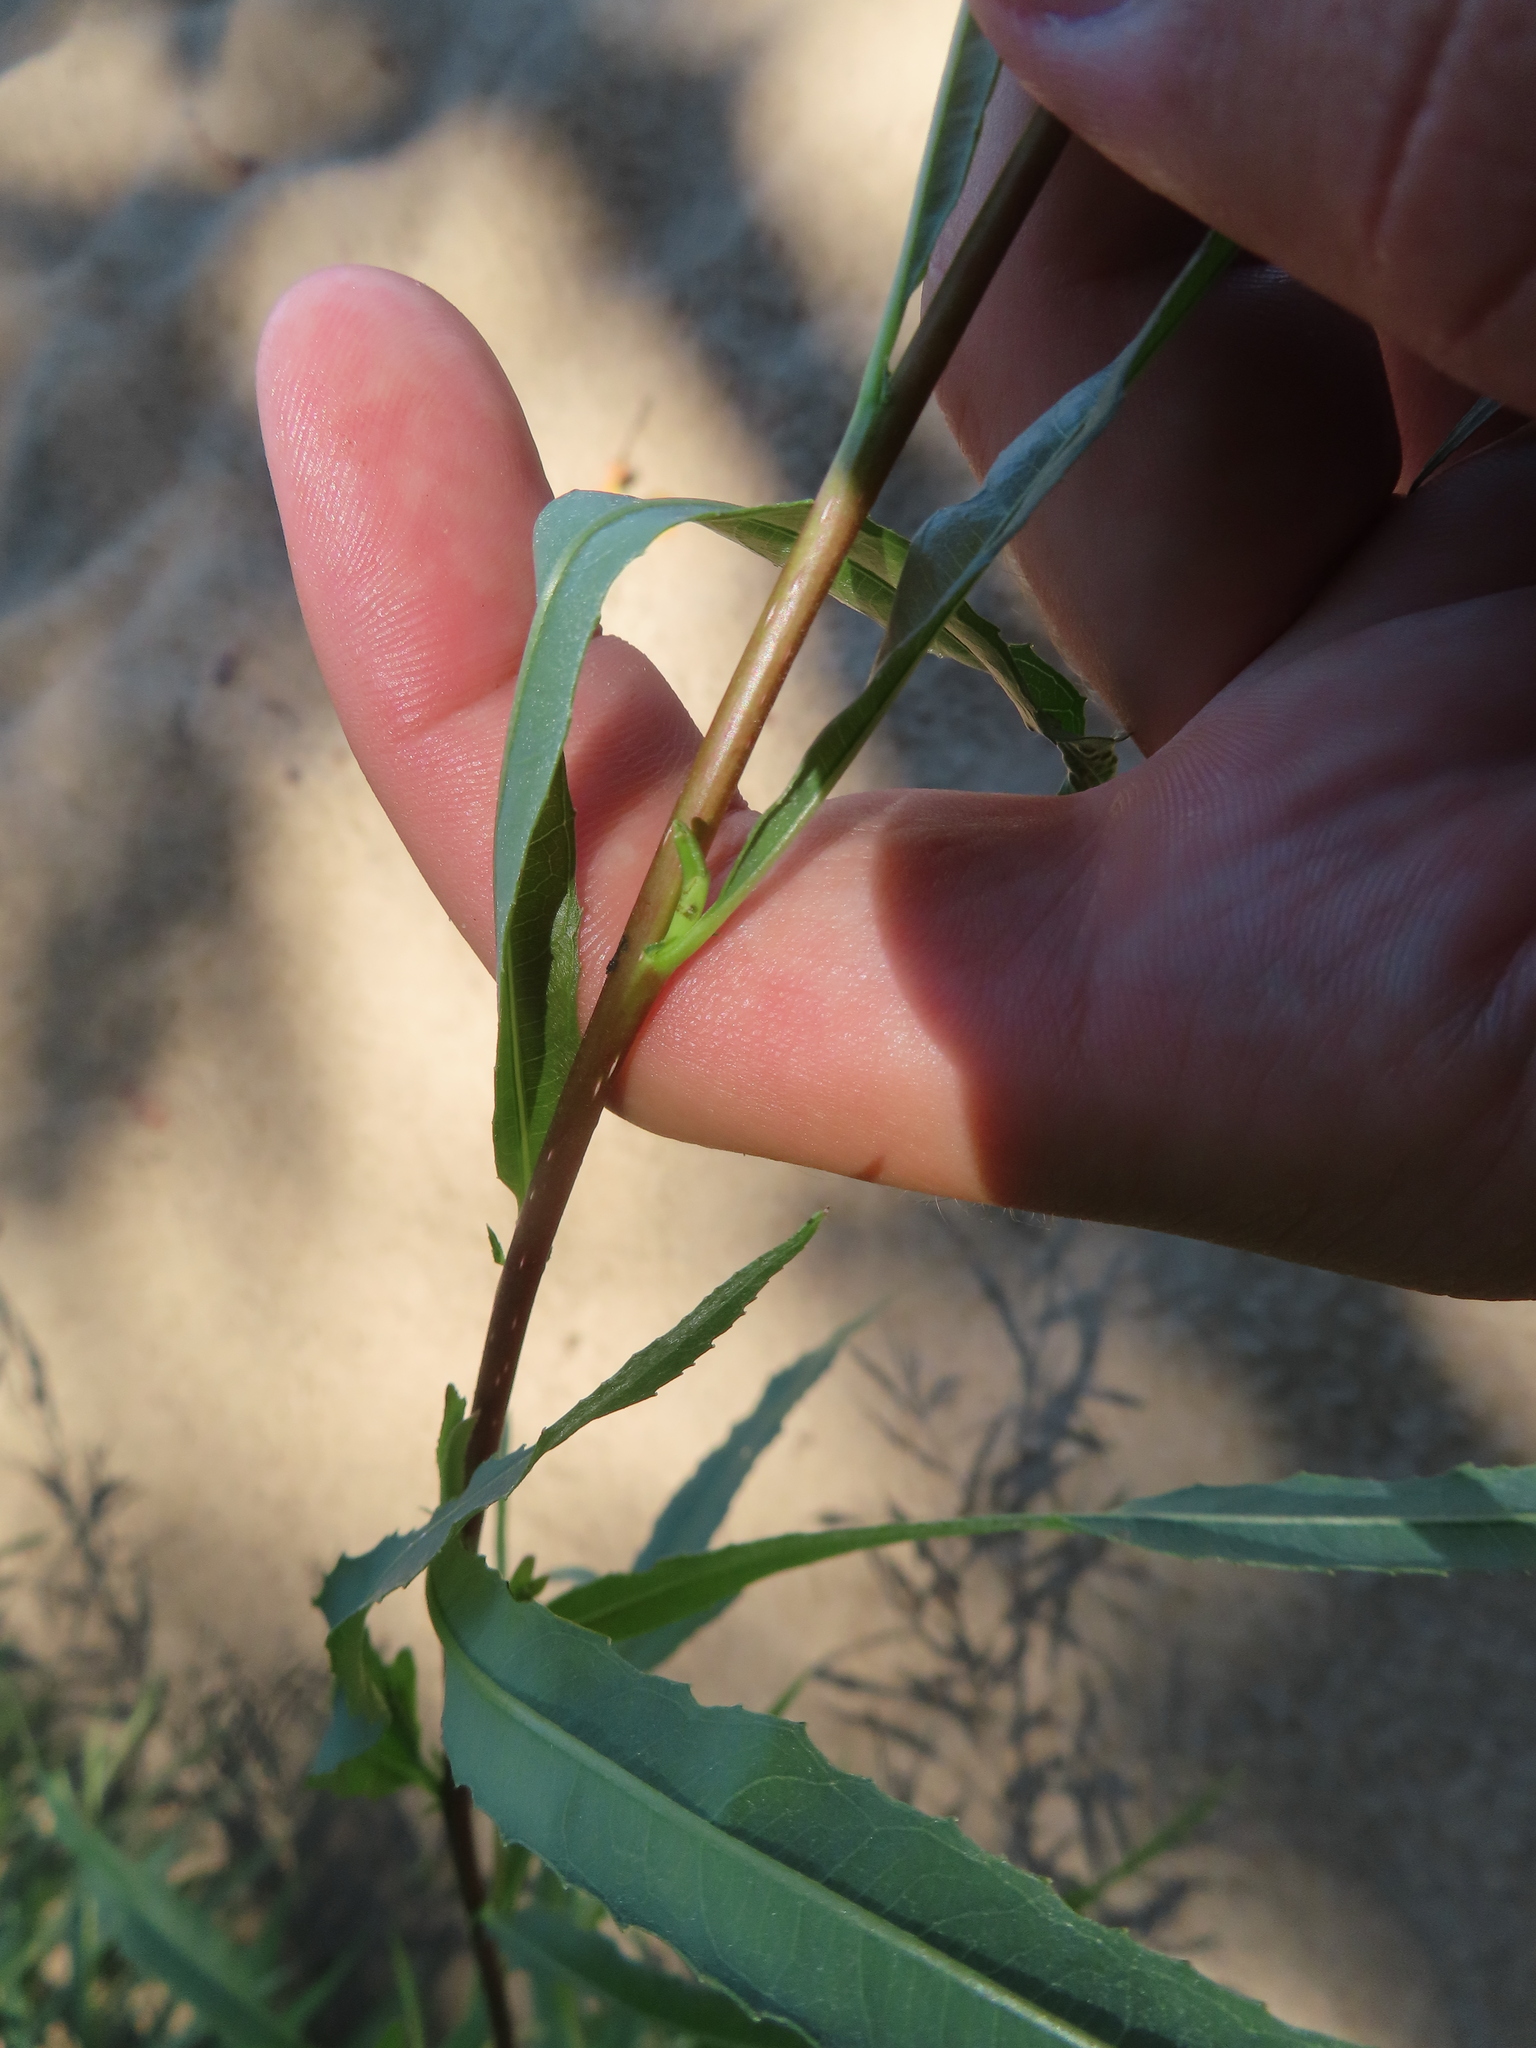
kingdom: Plantae
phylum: Tracheophyta
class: Magnoliopsida
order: Malpighiales
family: Salicaceae
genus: Salix
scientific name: Salix interior
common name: Sandbar willow
